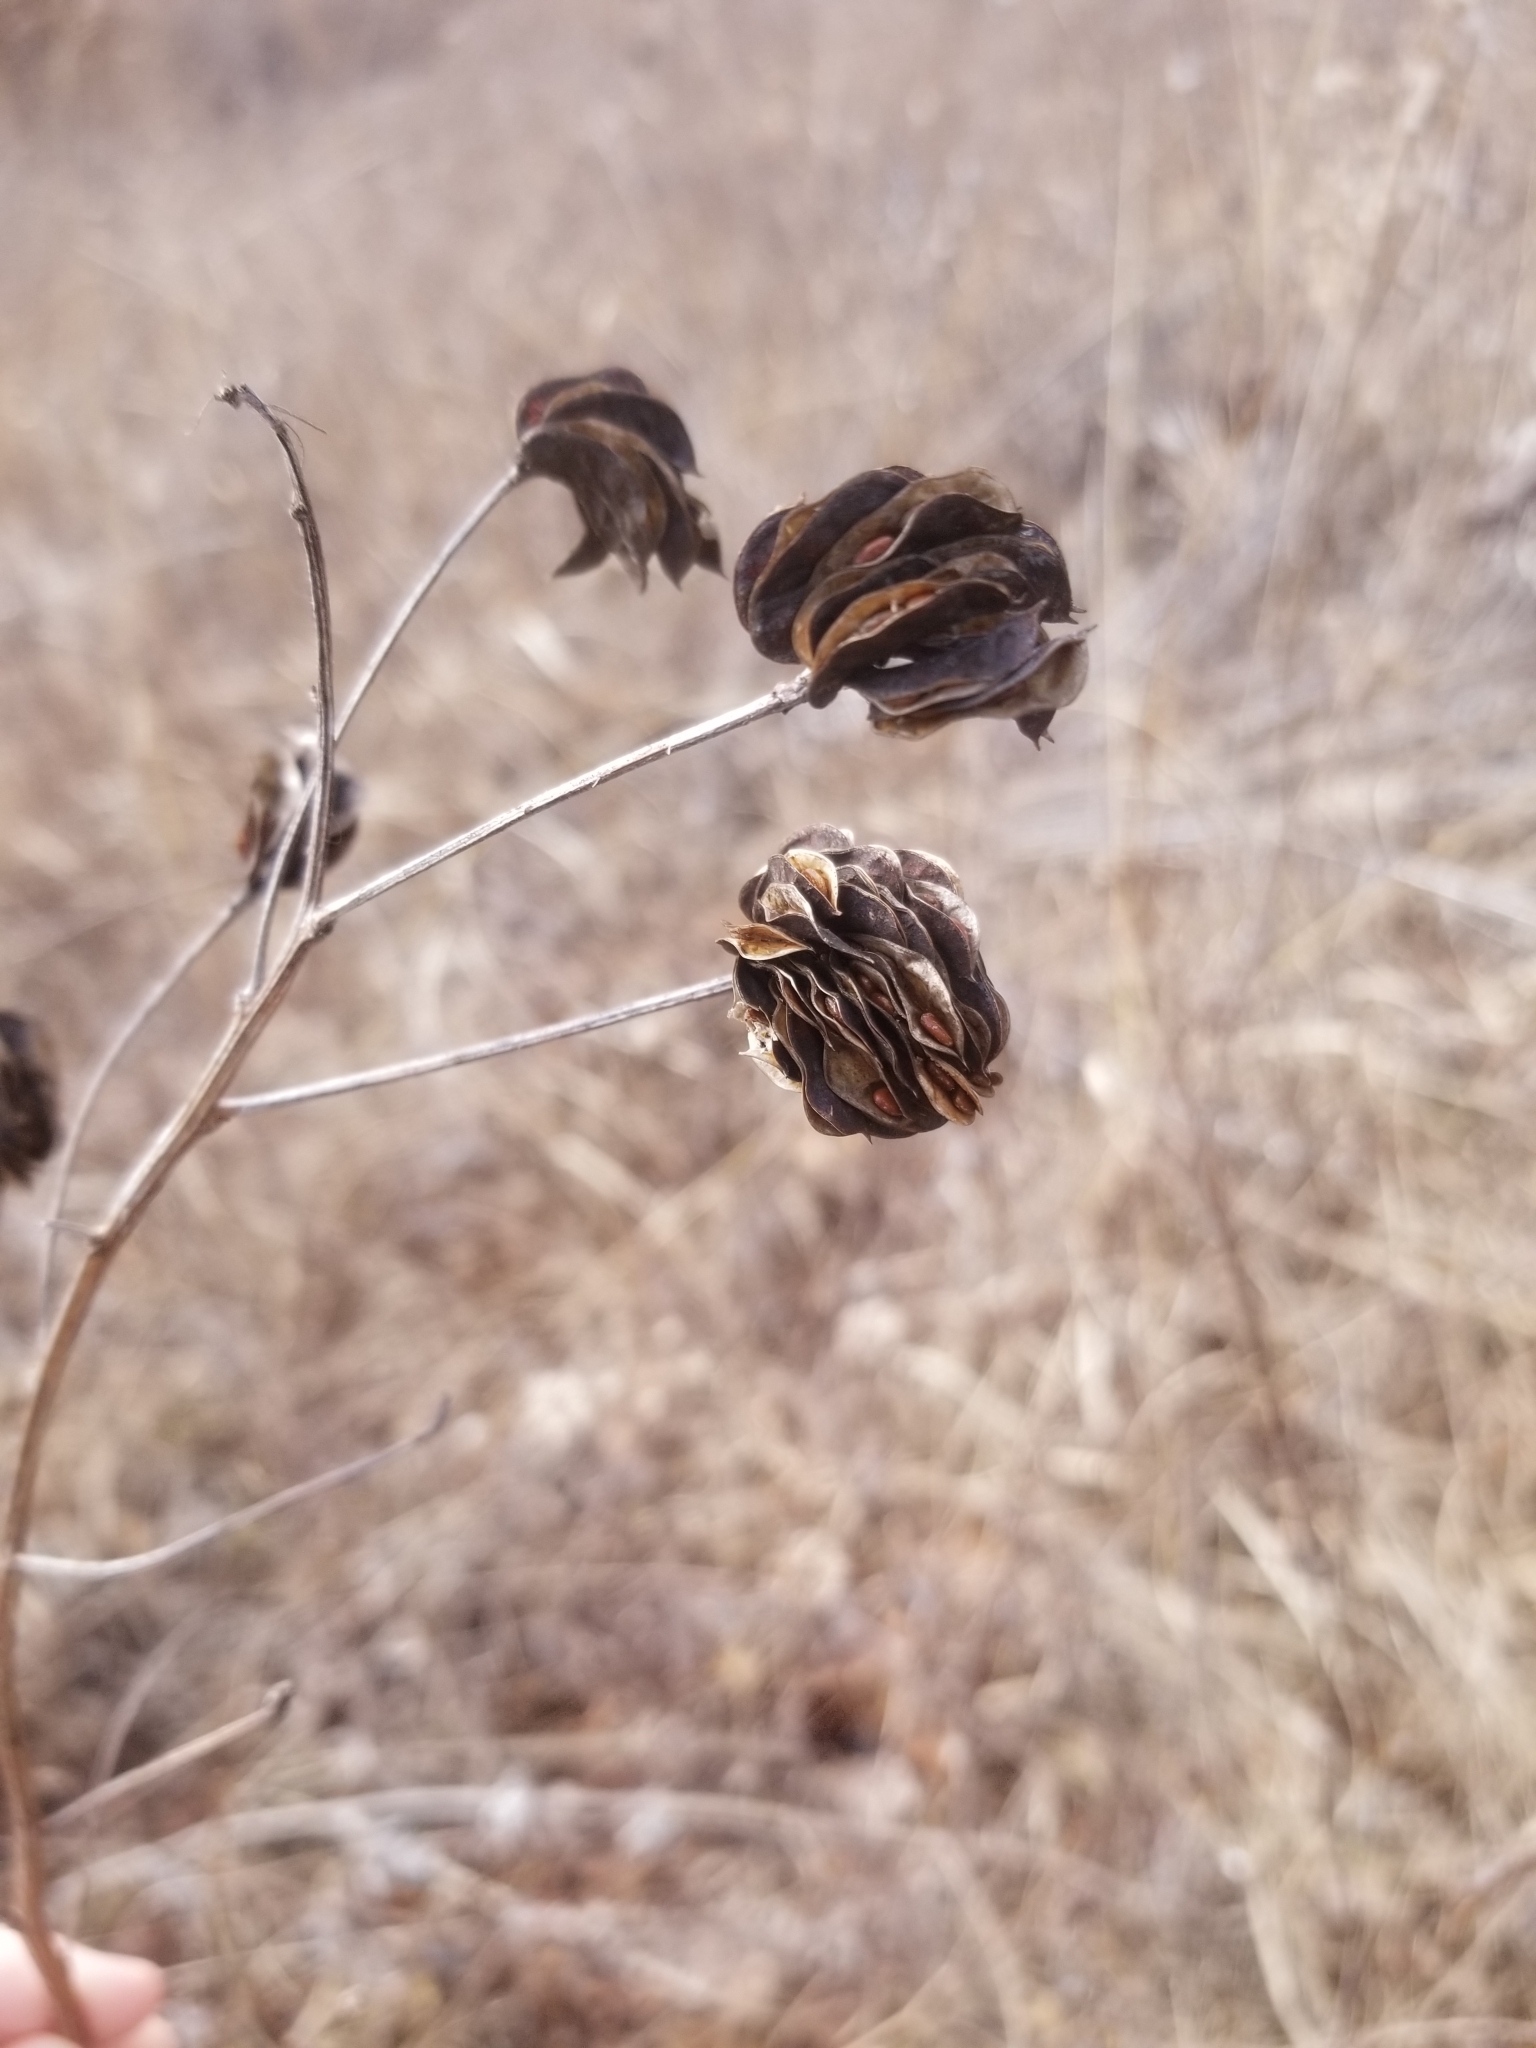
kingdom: Plantae
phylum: Tracheophyta
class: Magnoliopsida
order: Fabales
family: Fabaceae
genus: Desmanthus
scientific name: Desmanthus illinoensis
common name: Illinois bundle-flower
